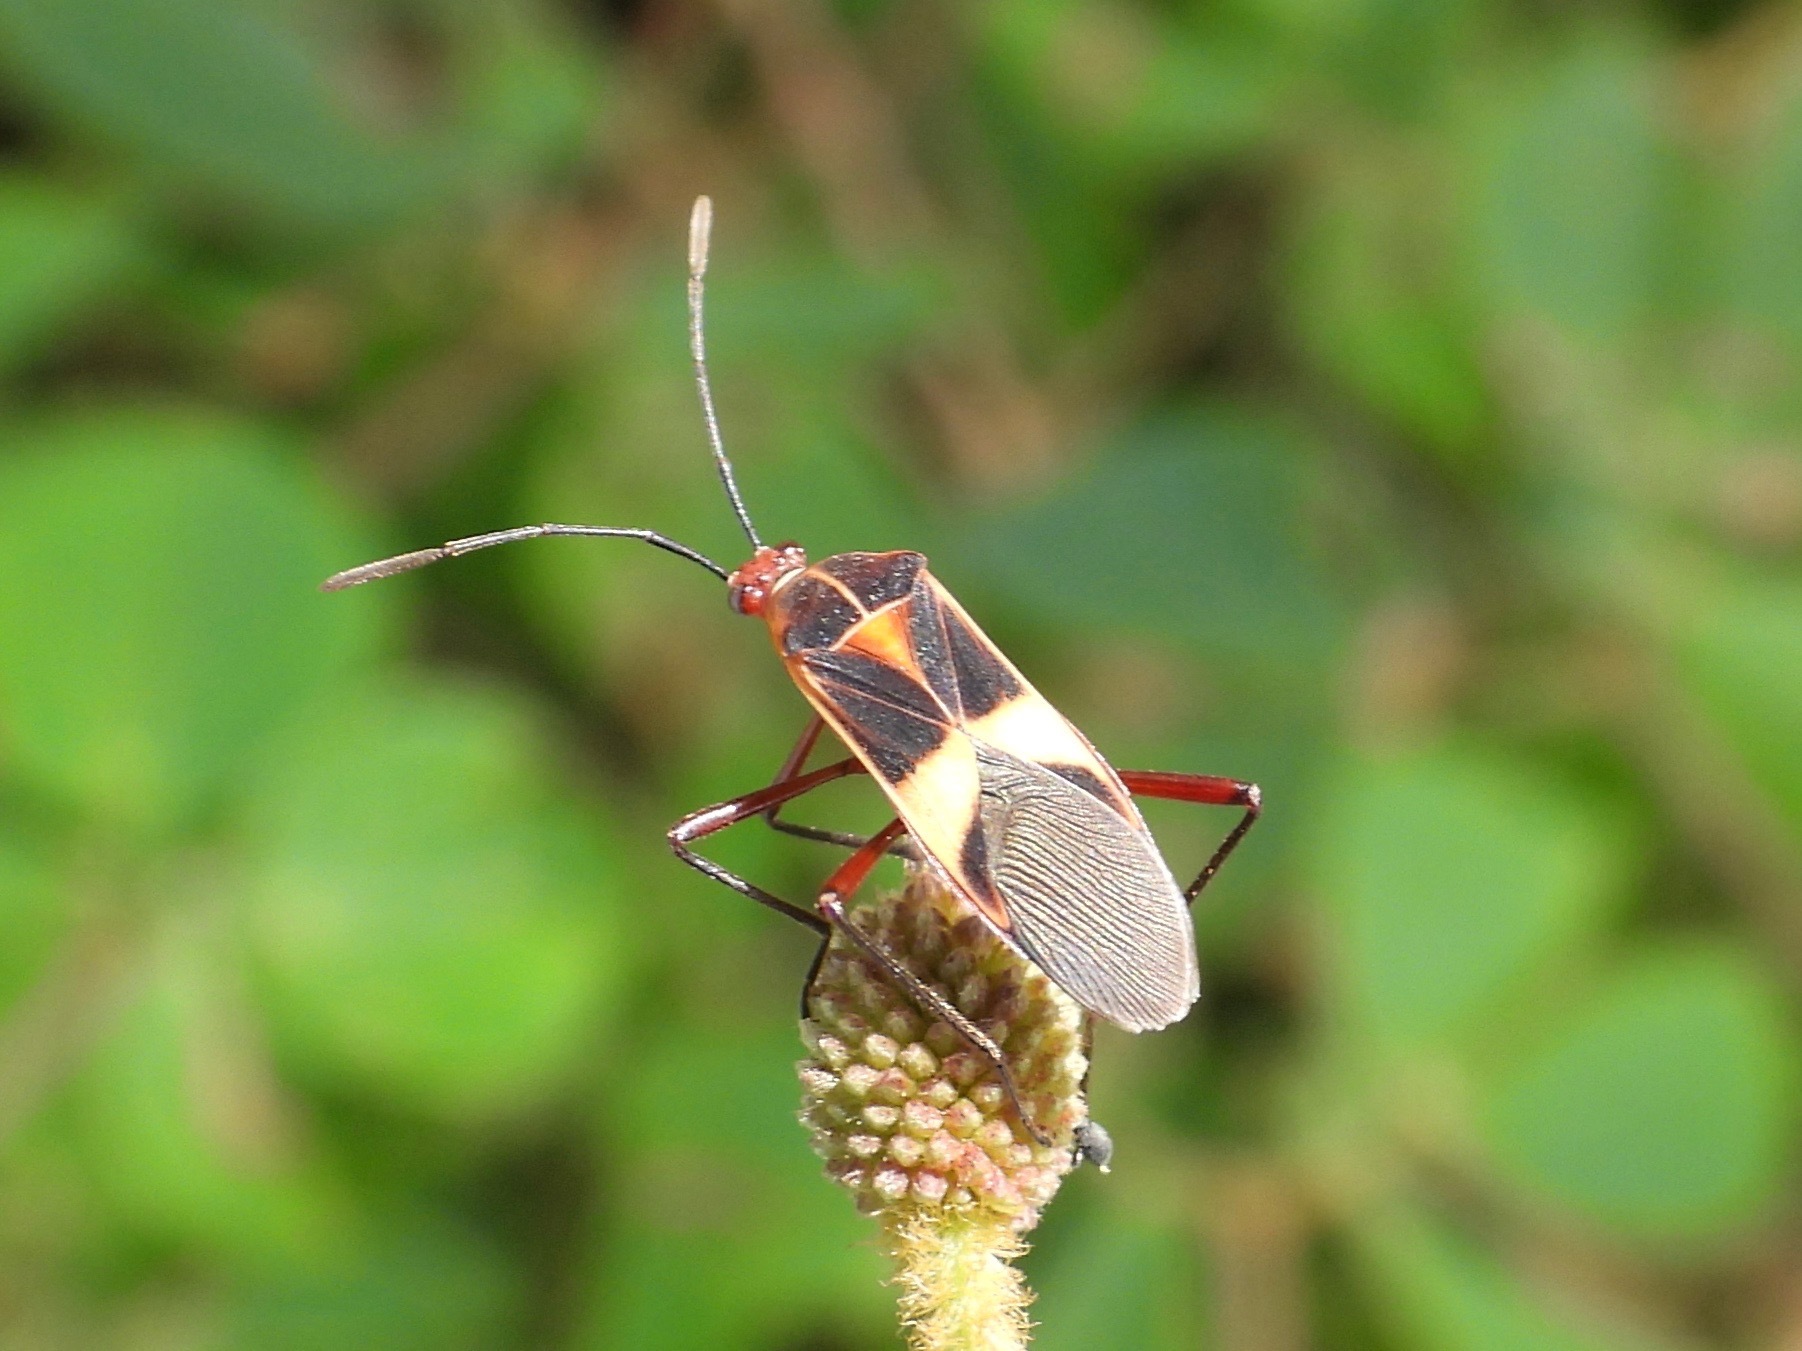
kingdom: Animalia
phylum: Arthropoda
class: Insecta
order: Hemiptera
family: Coreidae
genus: Hypselonotus
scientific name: Hypselonotus interruptus
